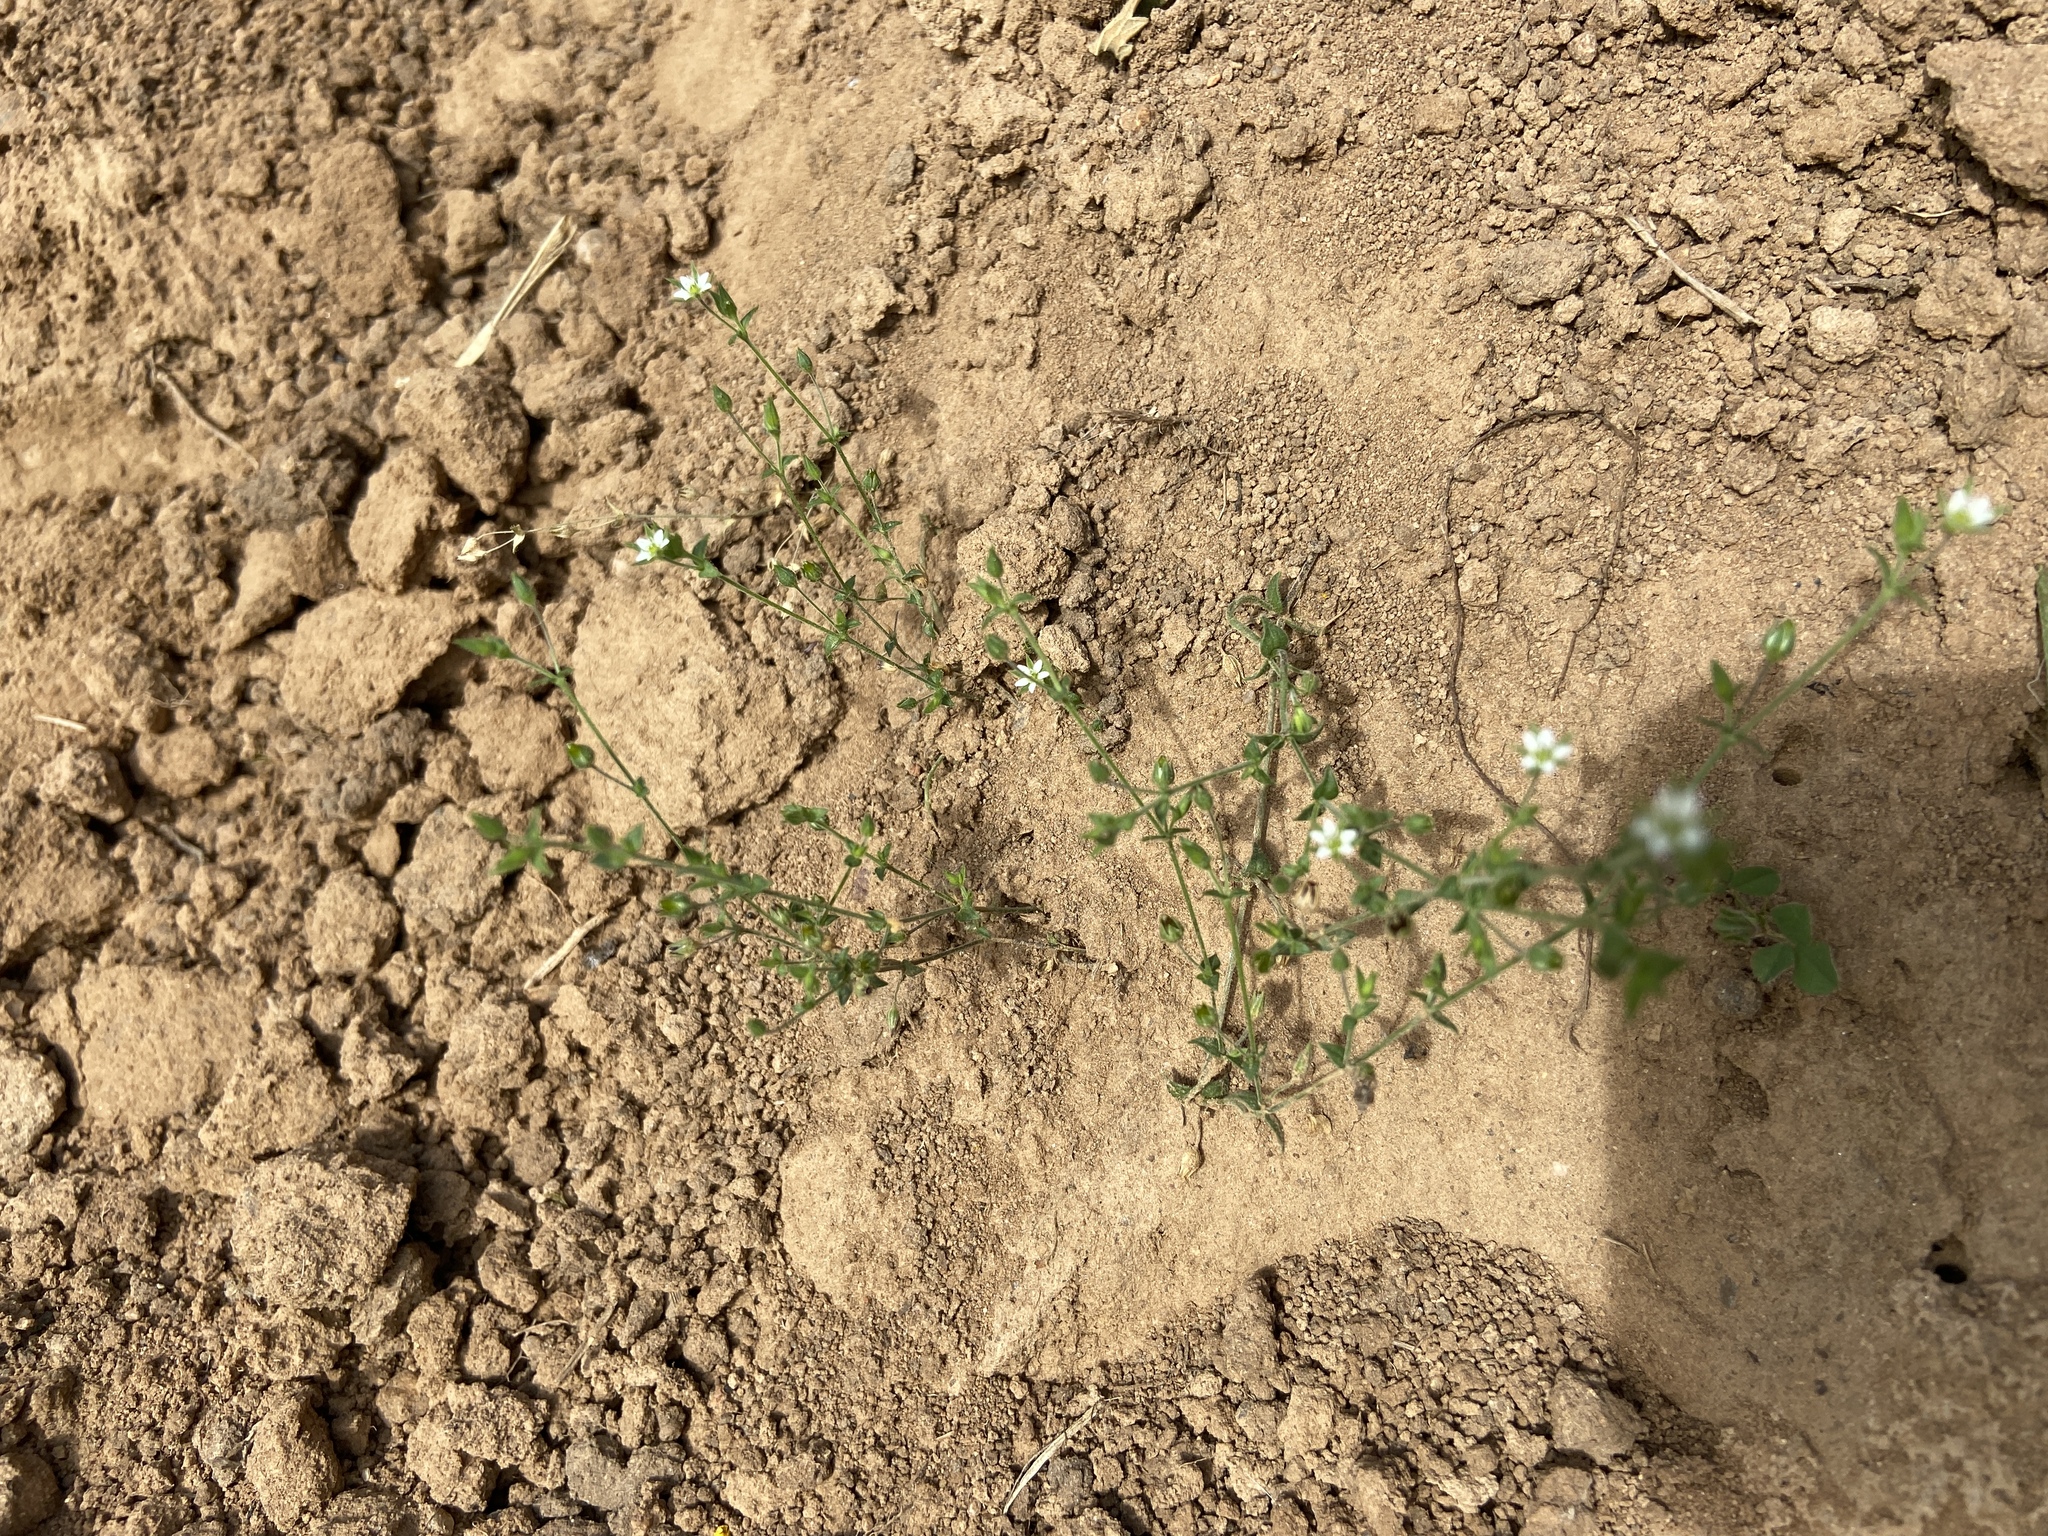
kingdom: Plantae
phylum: Tracheophyta
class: Magnoliopsida
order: Caryophyllales
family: Caryophyllaceae
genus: Arenaria
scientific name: Arenaria serpyllifolia
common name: Thyme-leaved sandwort
